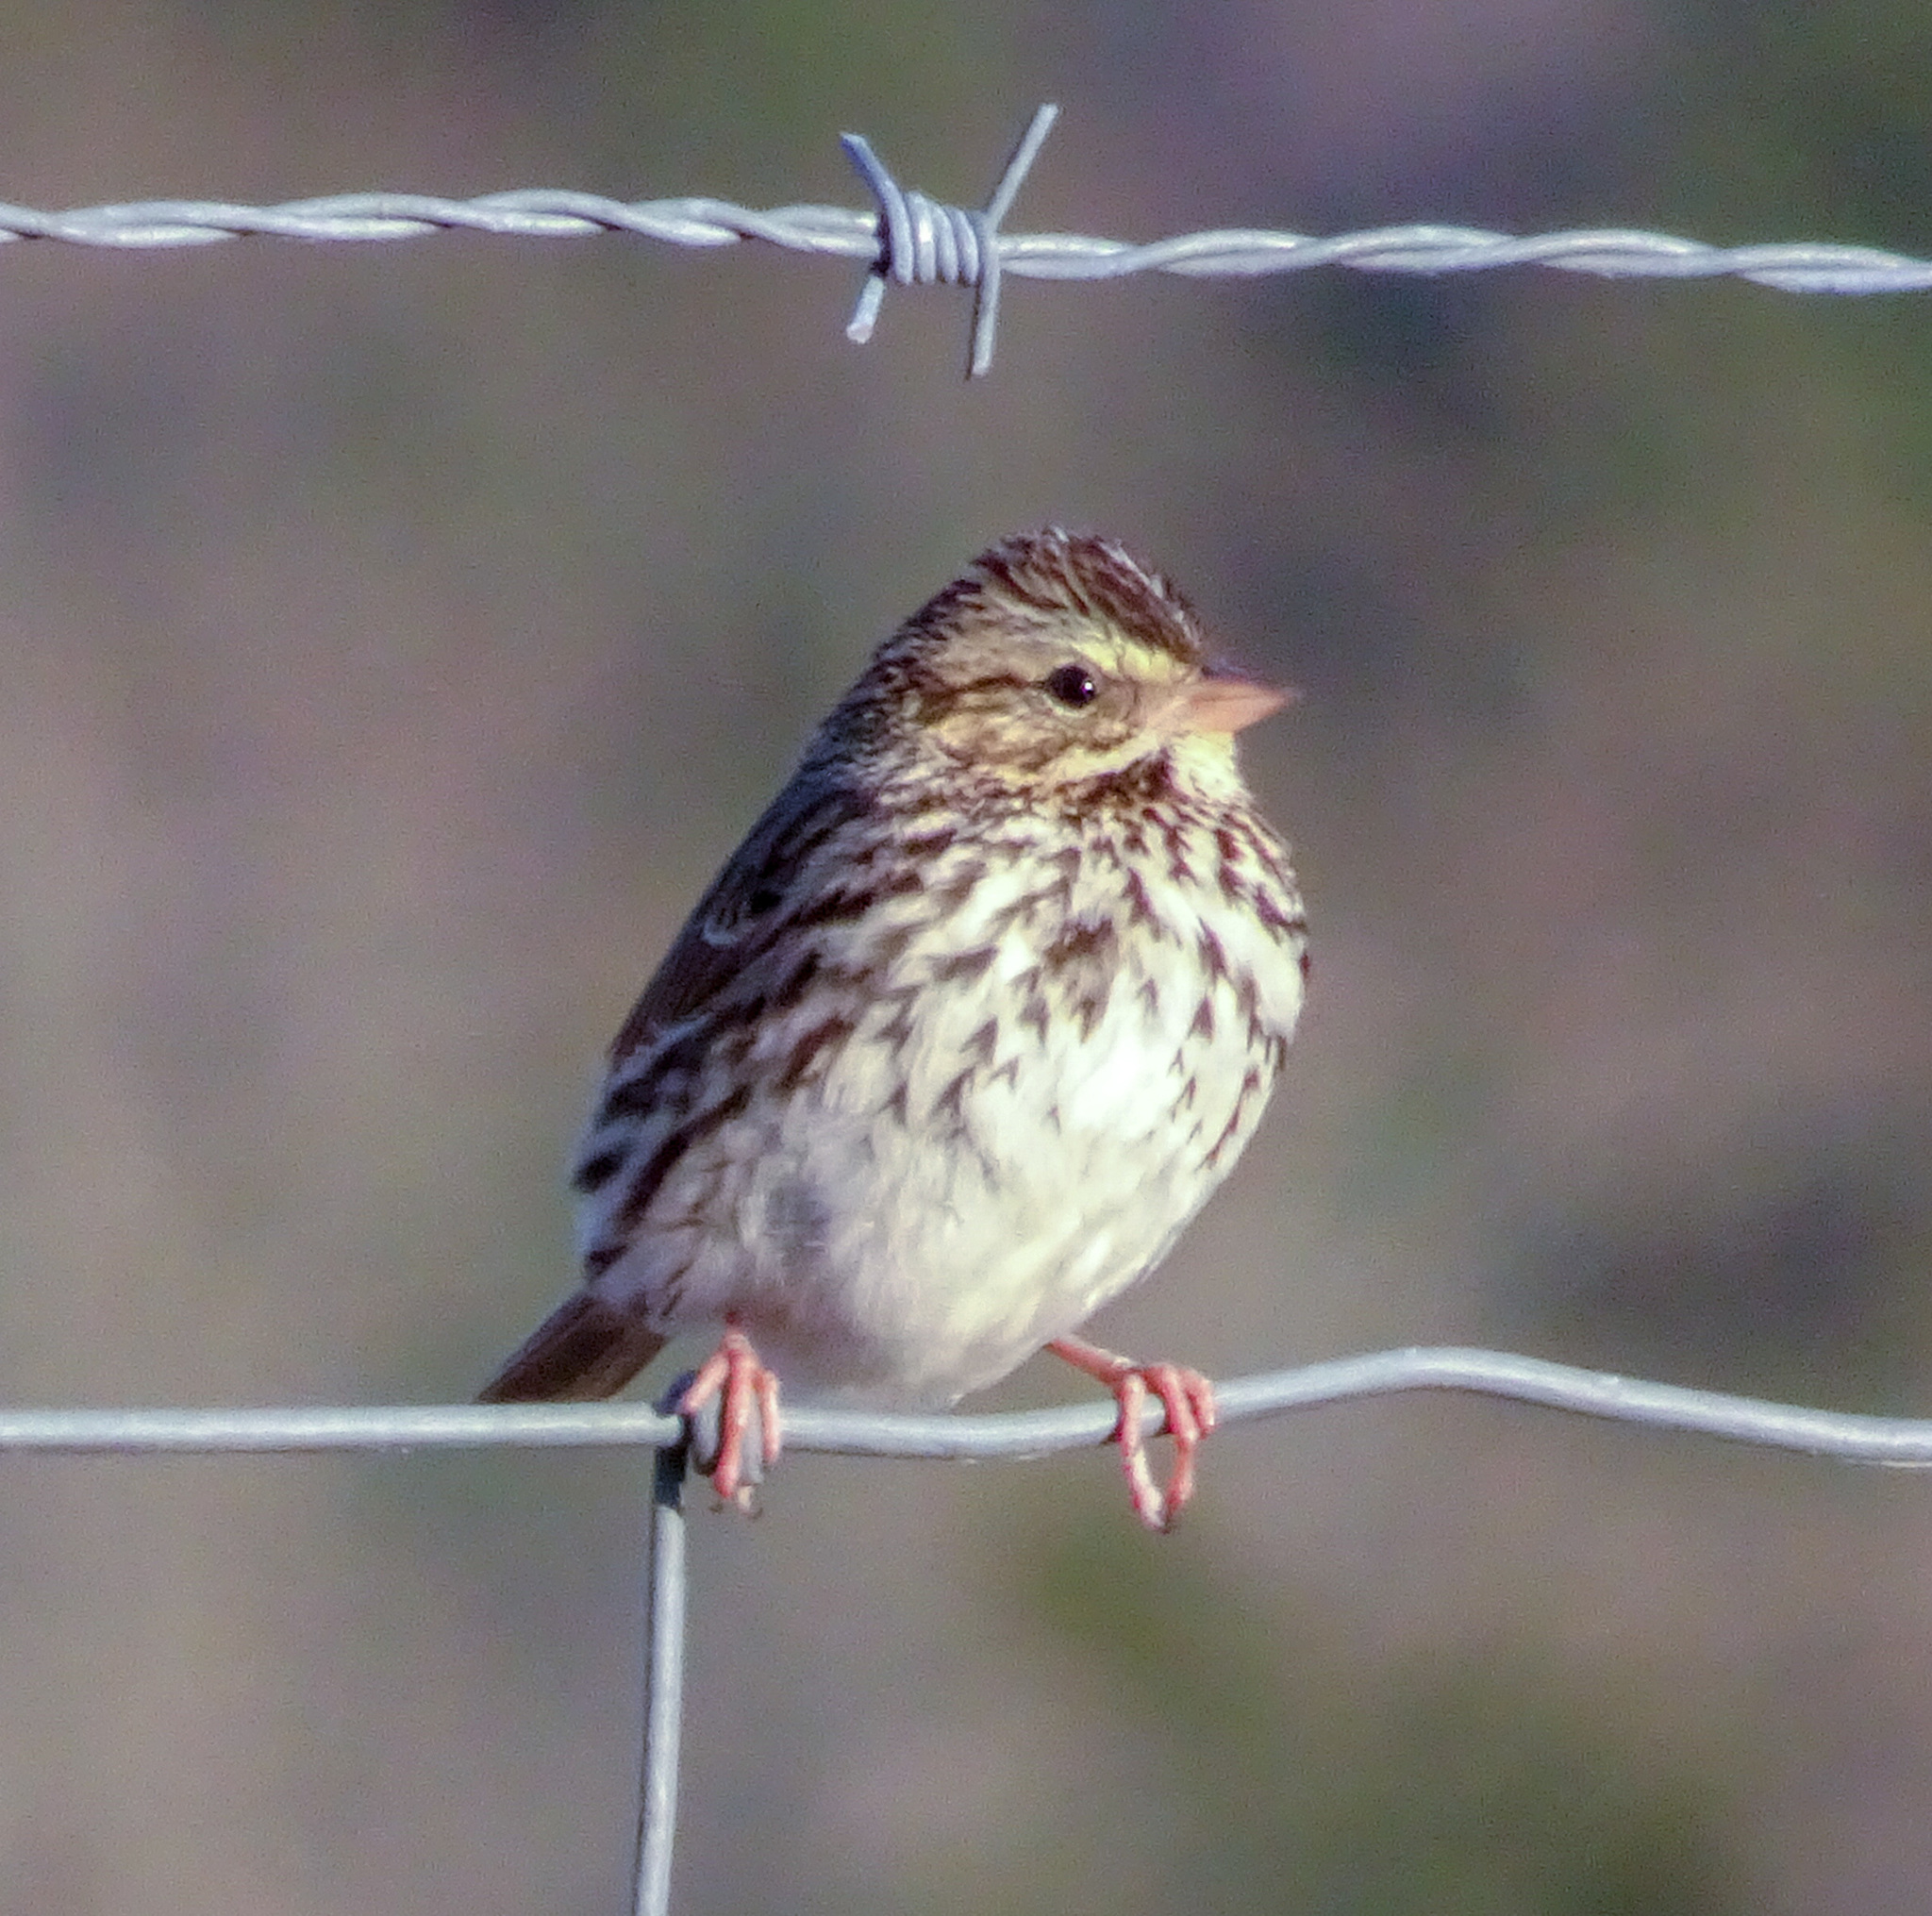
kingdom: Animalia
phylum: Chordata
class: Aves
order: Passeriformes
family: Passerellidae
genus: Passerculus
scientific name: Passerculus sandwichensis
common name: Savannah sparrow
